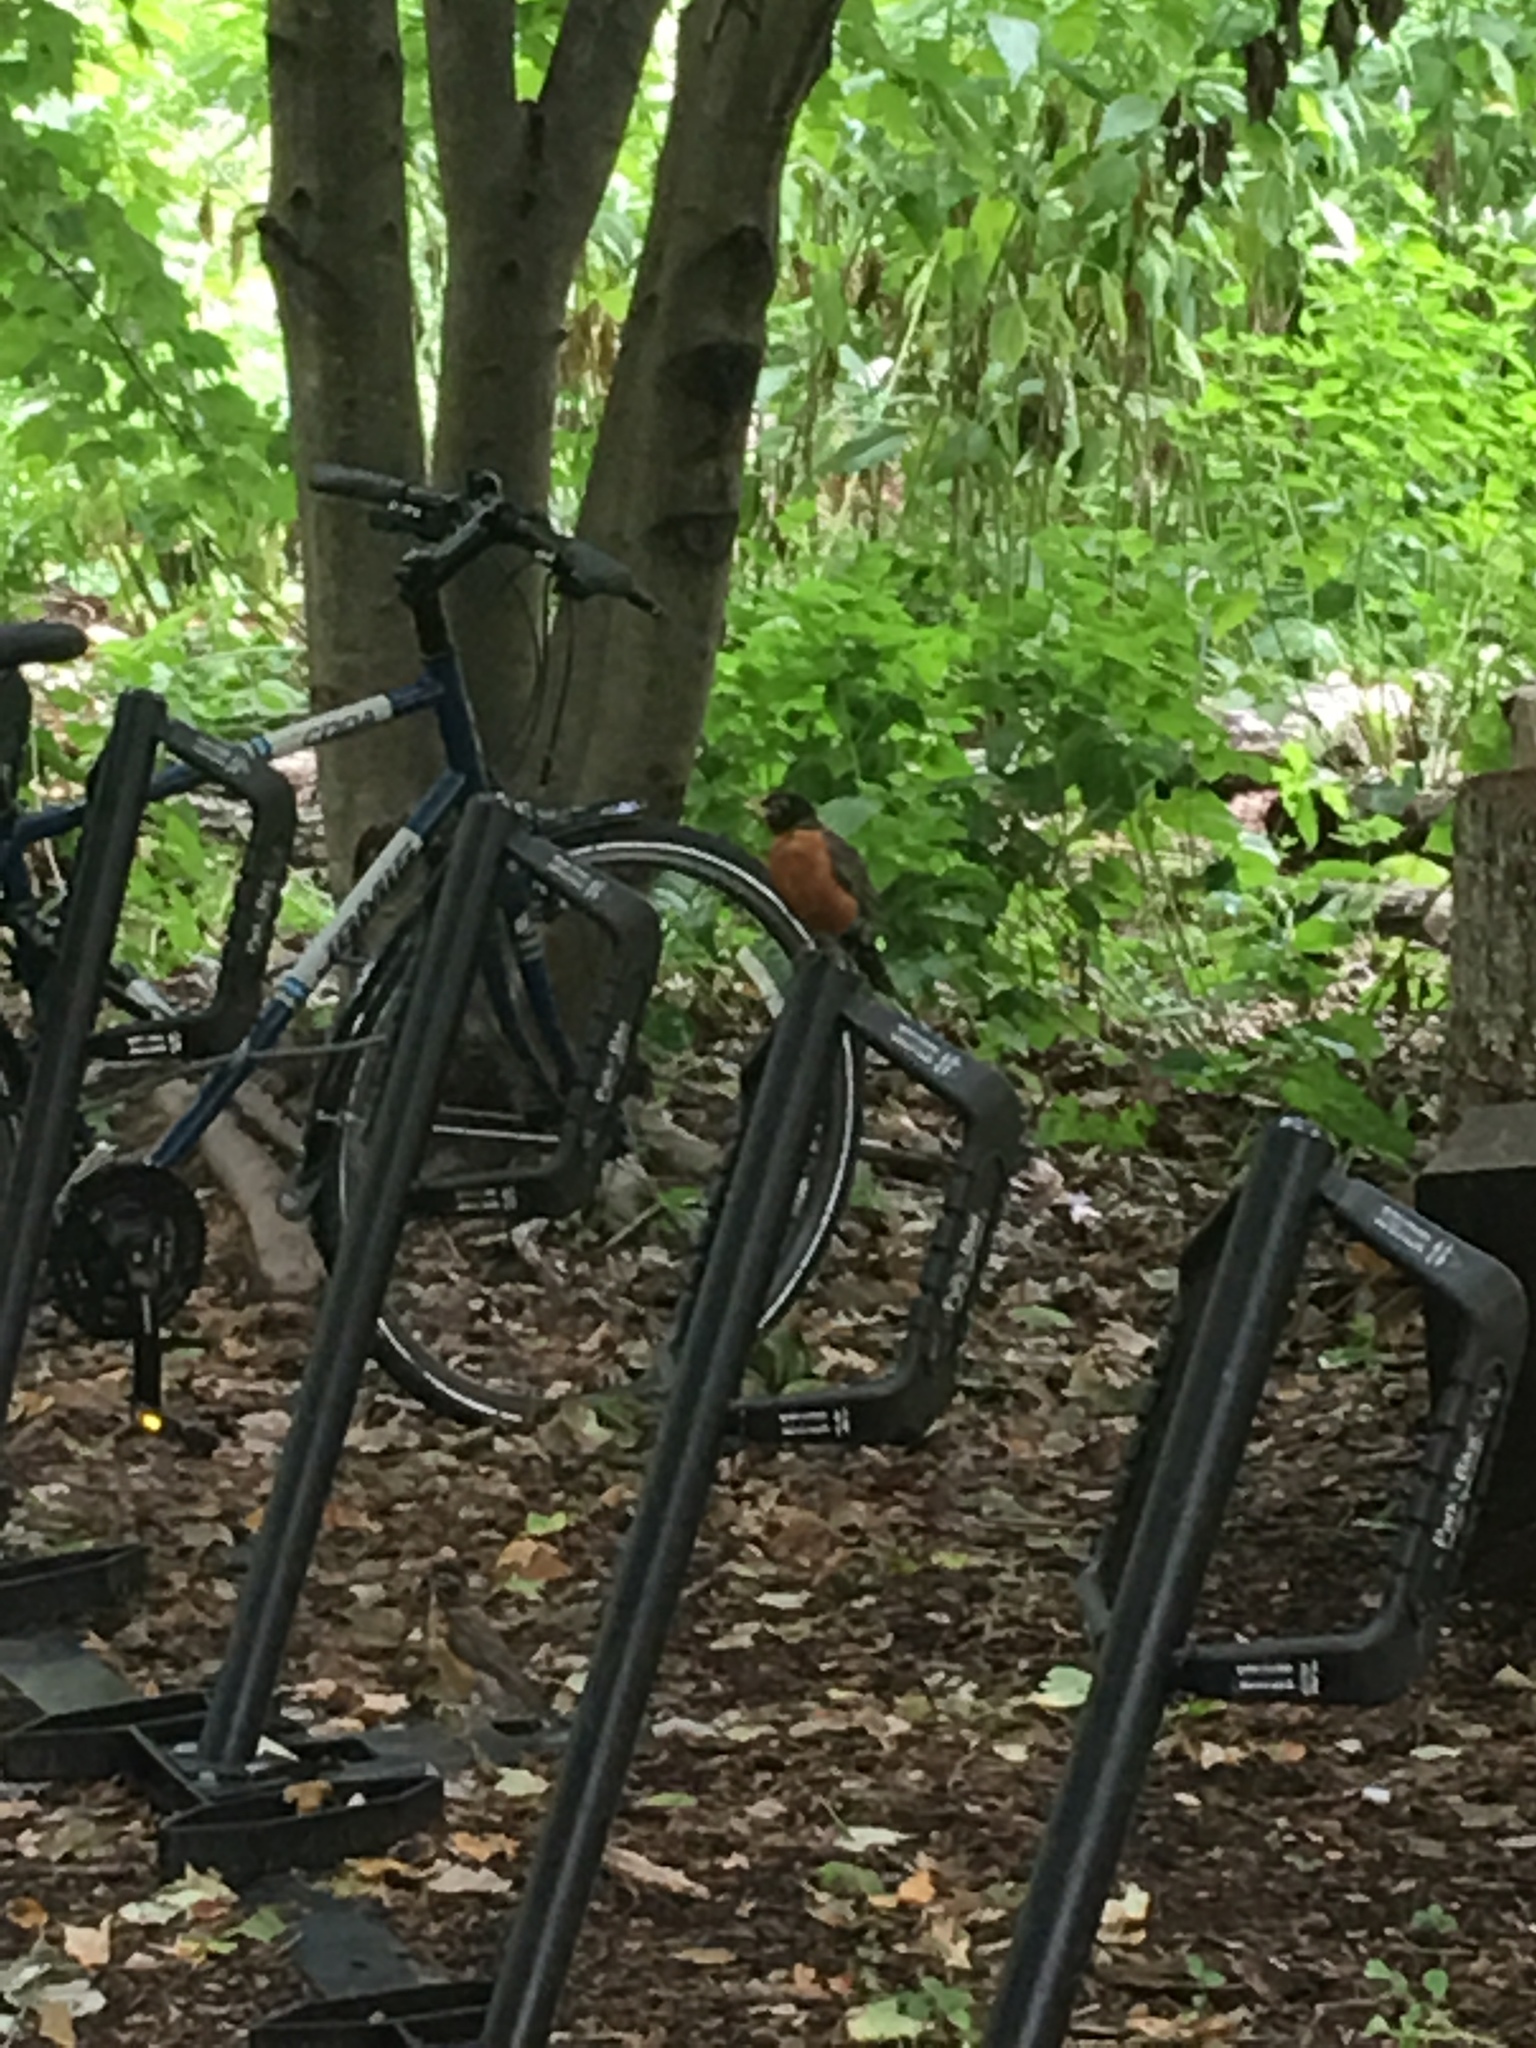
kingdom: Animalia
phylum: Chordata
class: Aves
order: Passeriformes
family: Turdidae
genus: Turdus
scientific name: Turdus migratorius
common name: American robin
